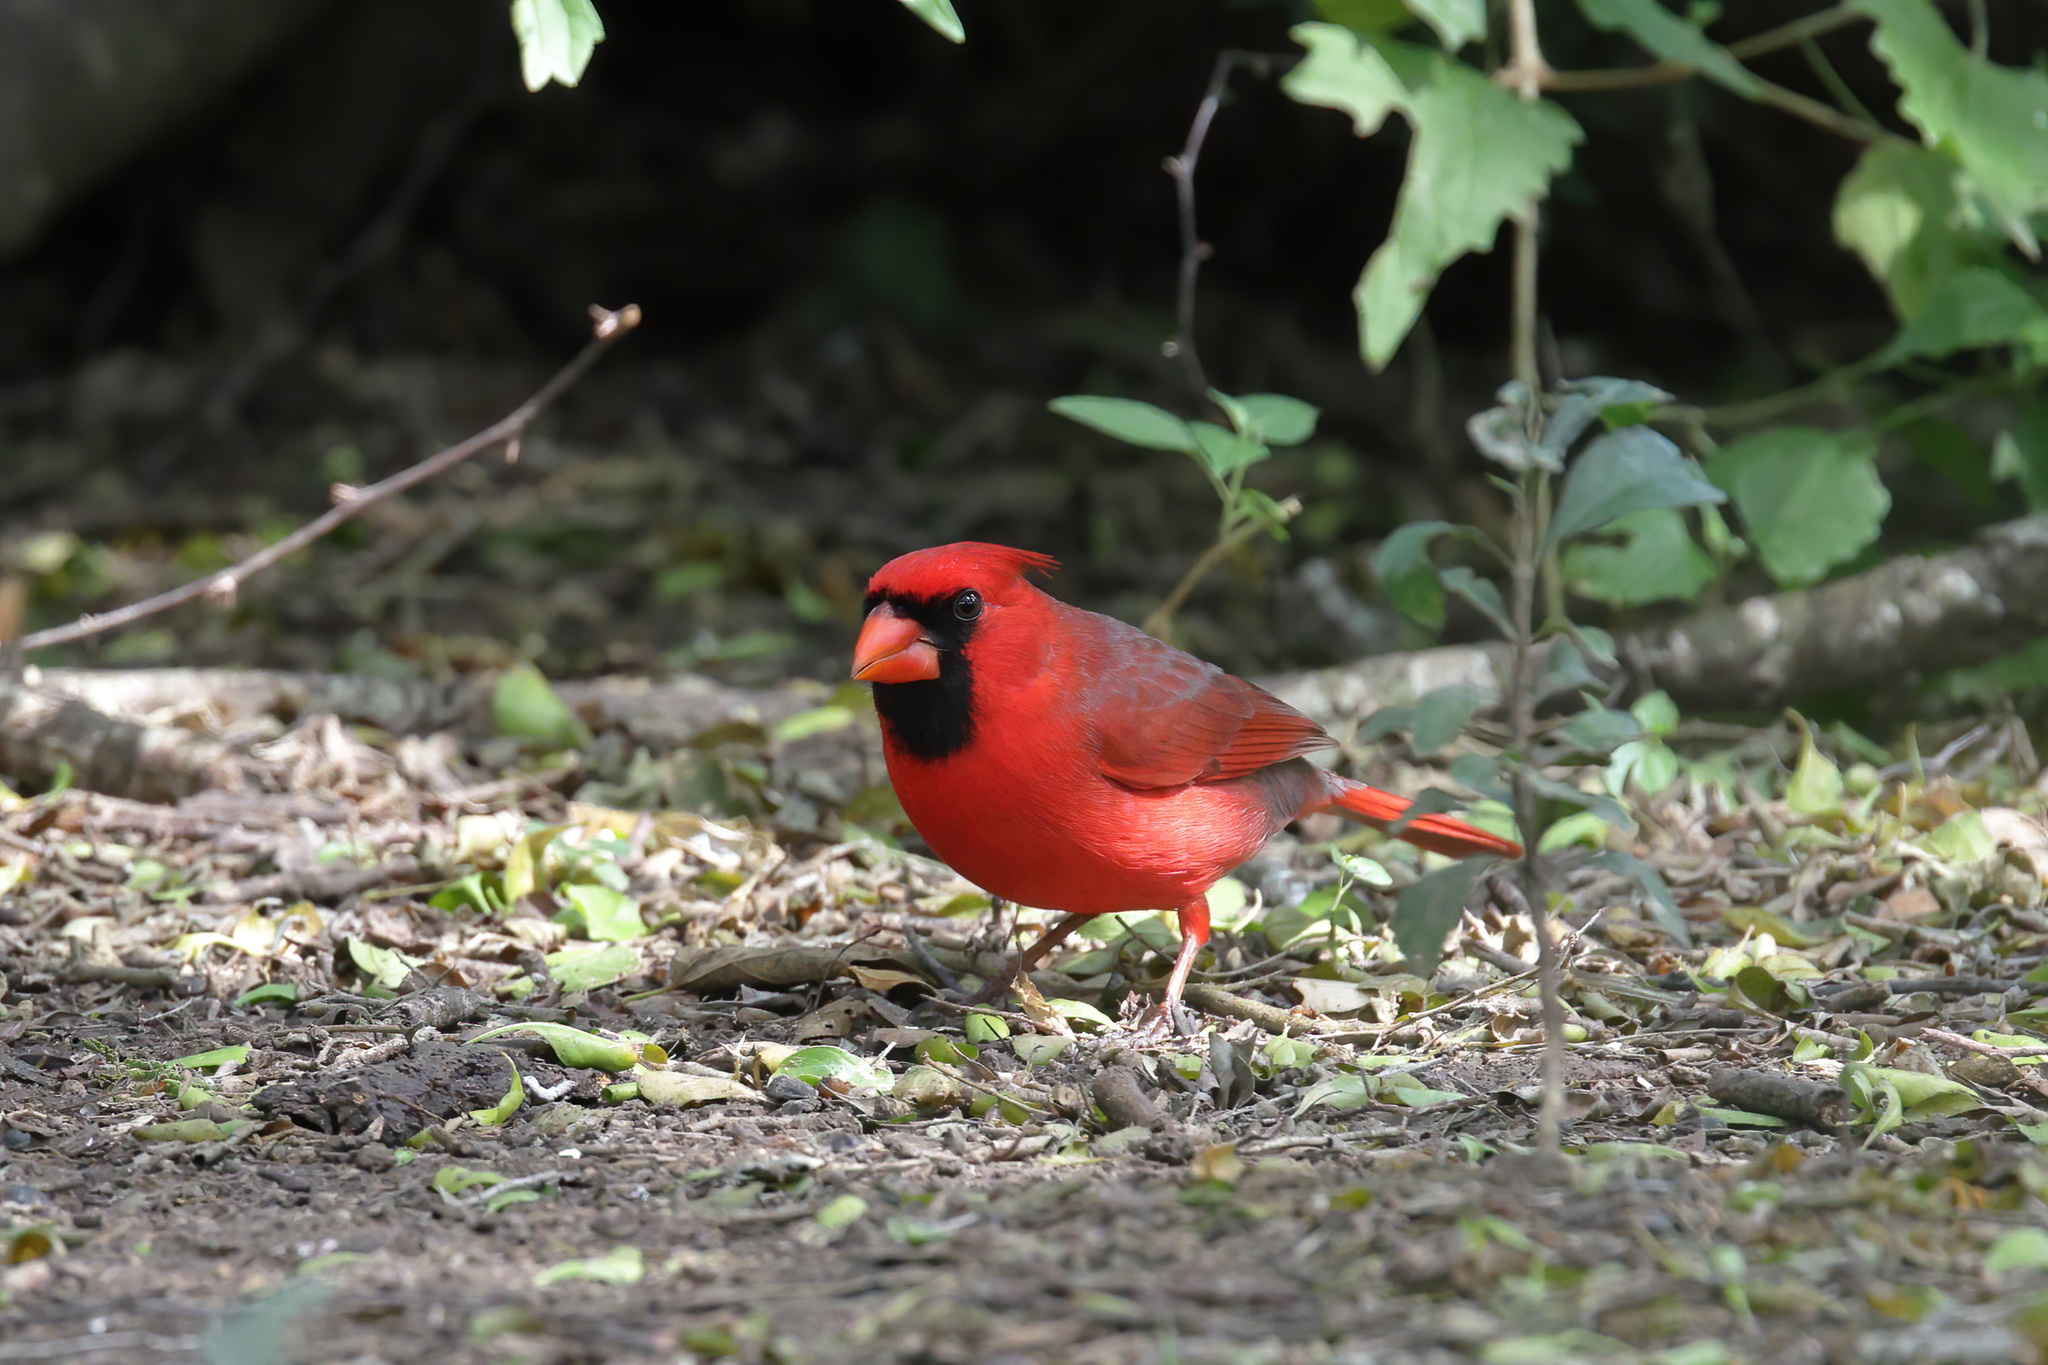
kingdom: Animalia
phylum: Chordata
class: Aves
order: Passeriformes
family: Cardinalidae
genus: Cardinalis
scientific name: Cardinalis cardinalis
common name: Northern cardinal
